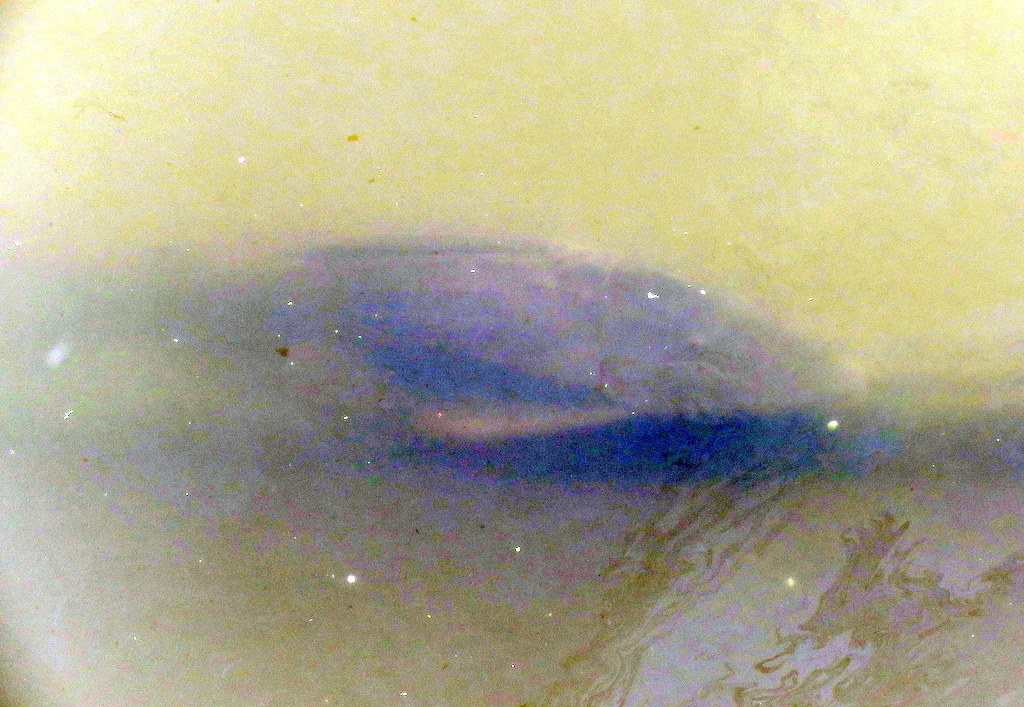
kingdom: Animalia
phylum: Chordata
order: Siluriformes
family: Loricariidae
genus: Hypostomus
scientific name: Hypostomus laplatae
